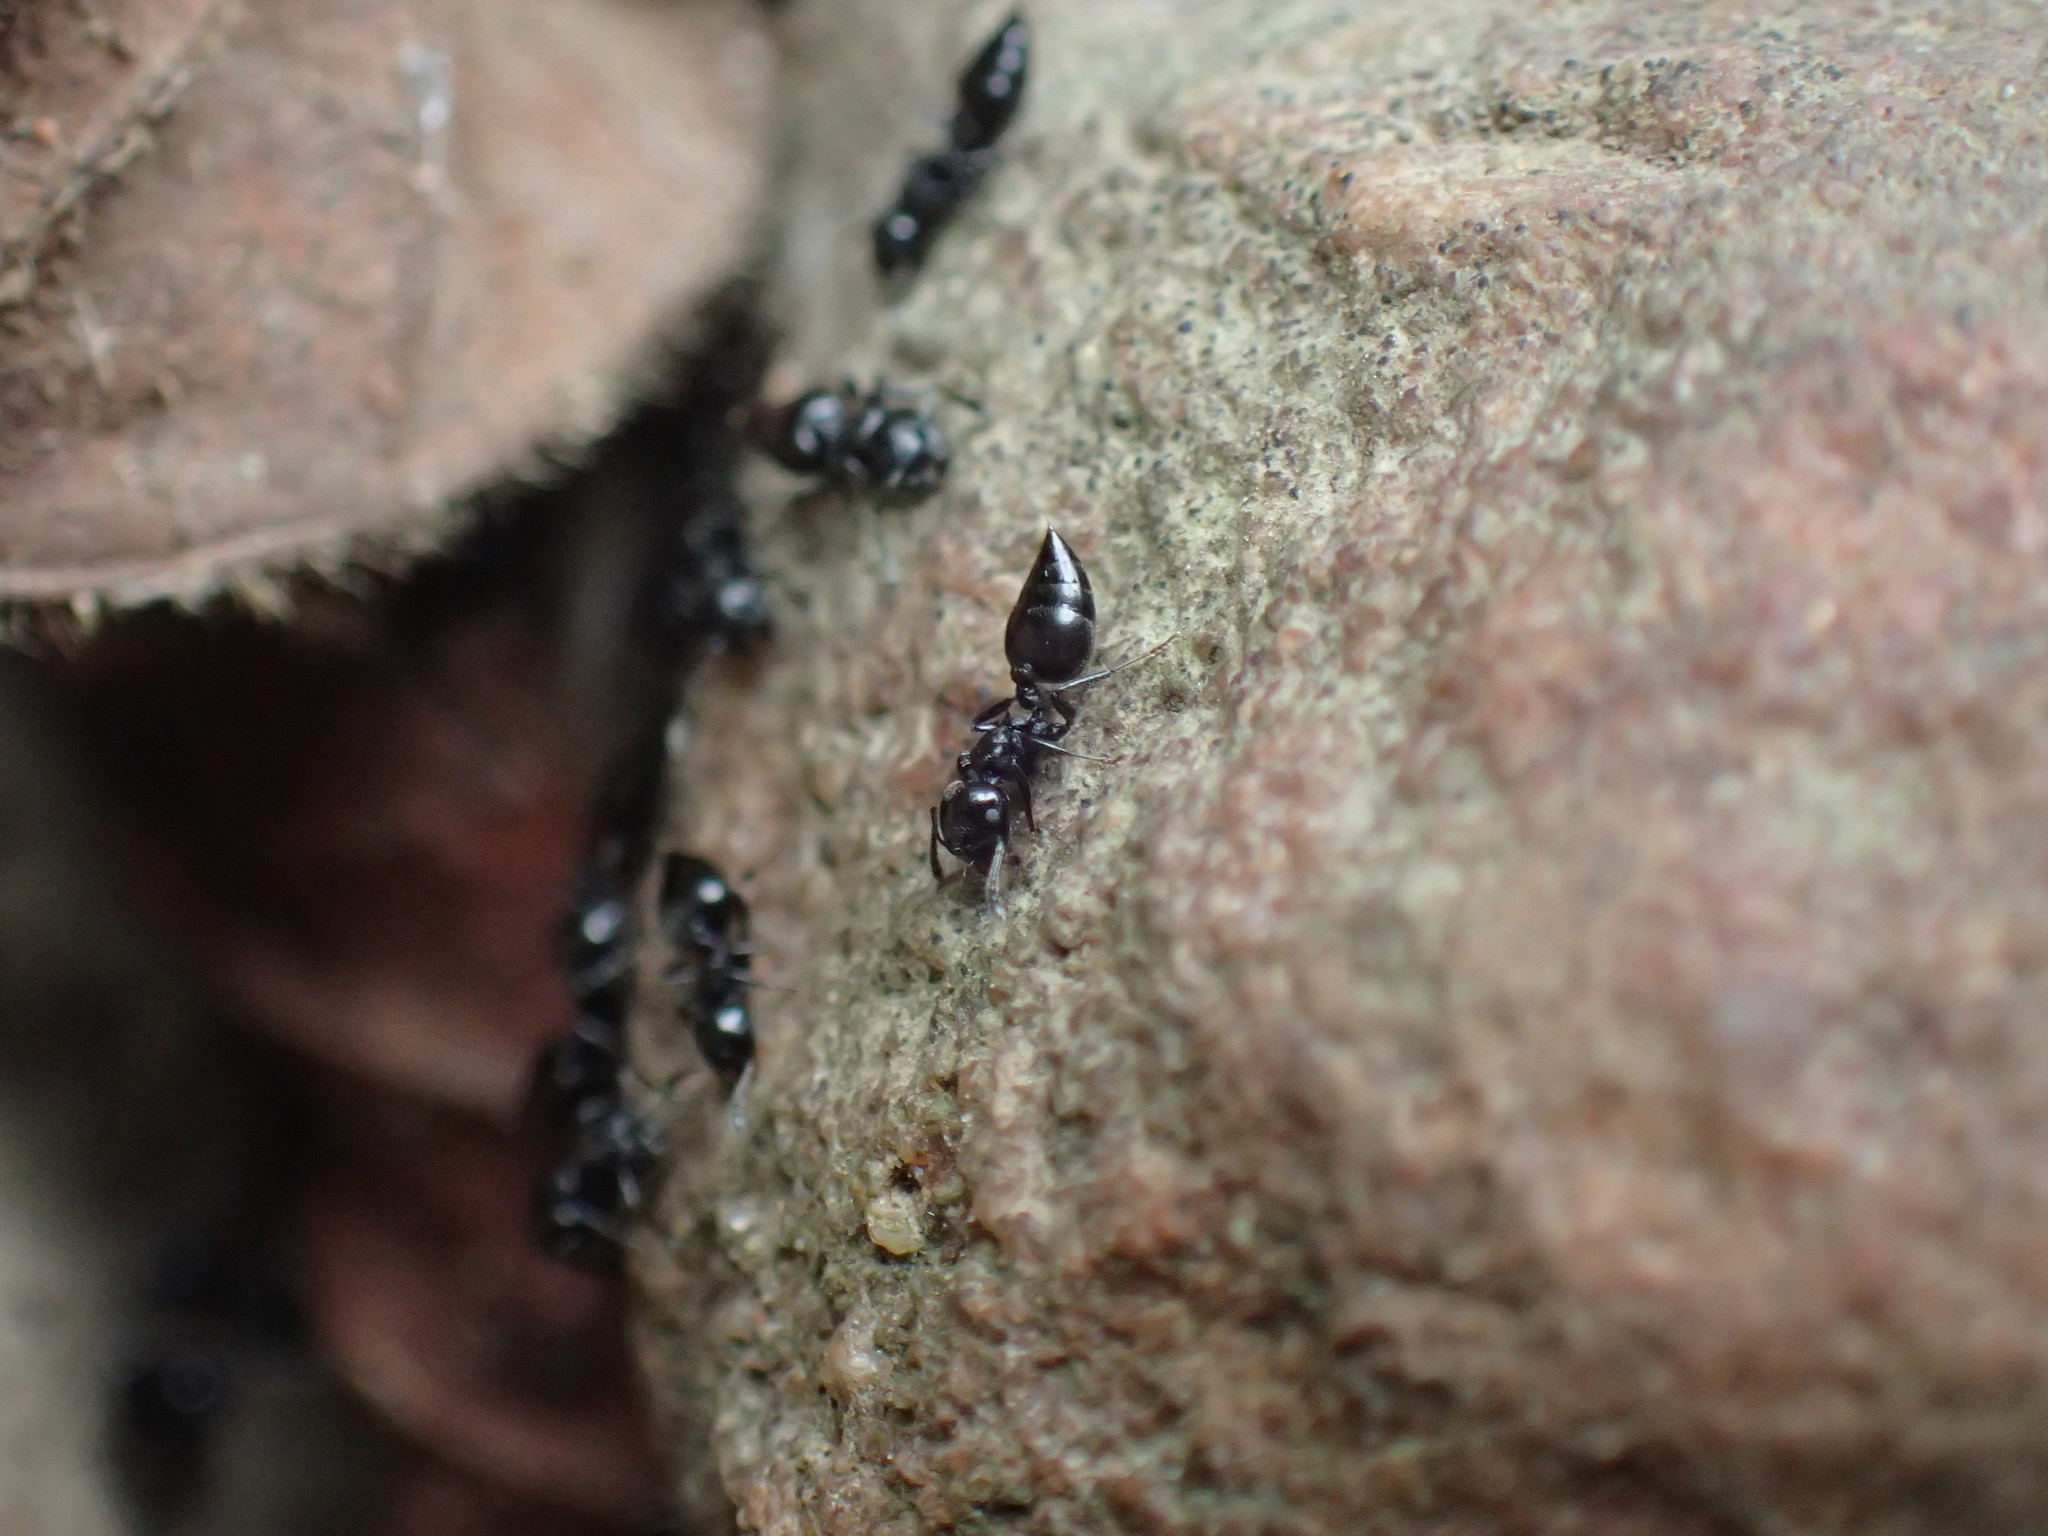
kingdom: Animalia
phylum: Arthropoda
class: Insecta
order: Hymenoptera
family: Formicidae
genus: Crematogaster
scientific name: Crematogaster liengmei
